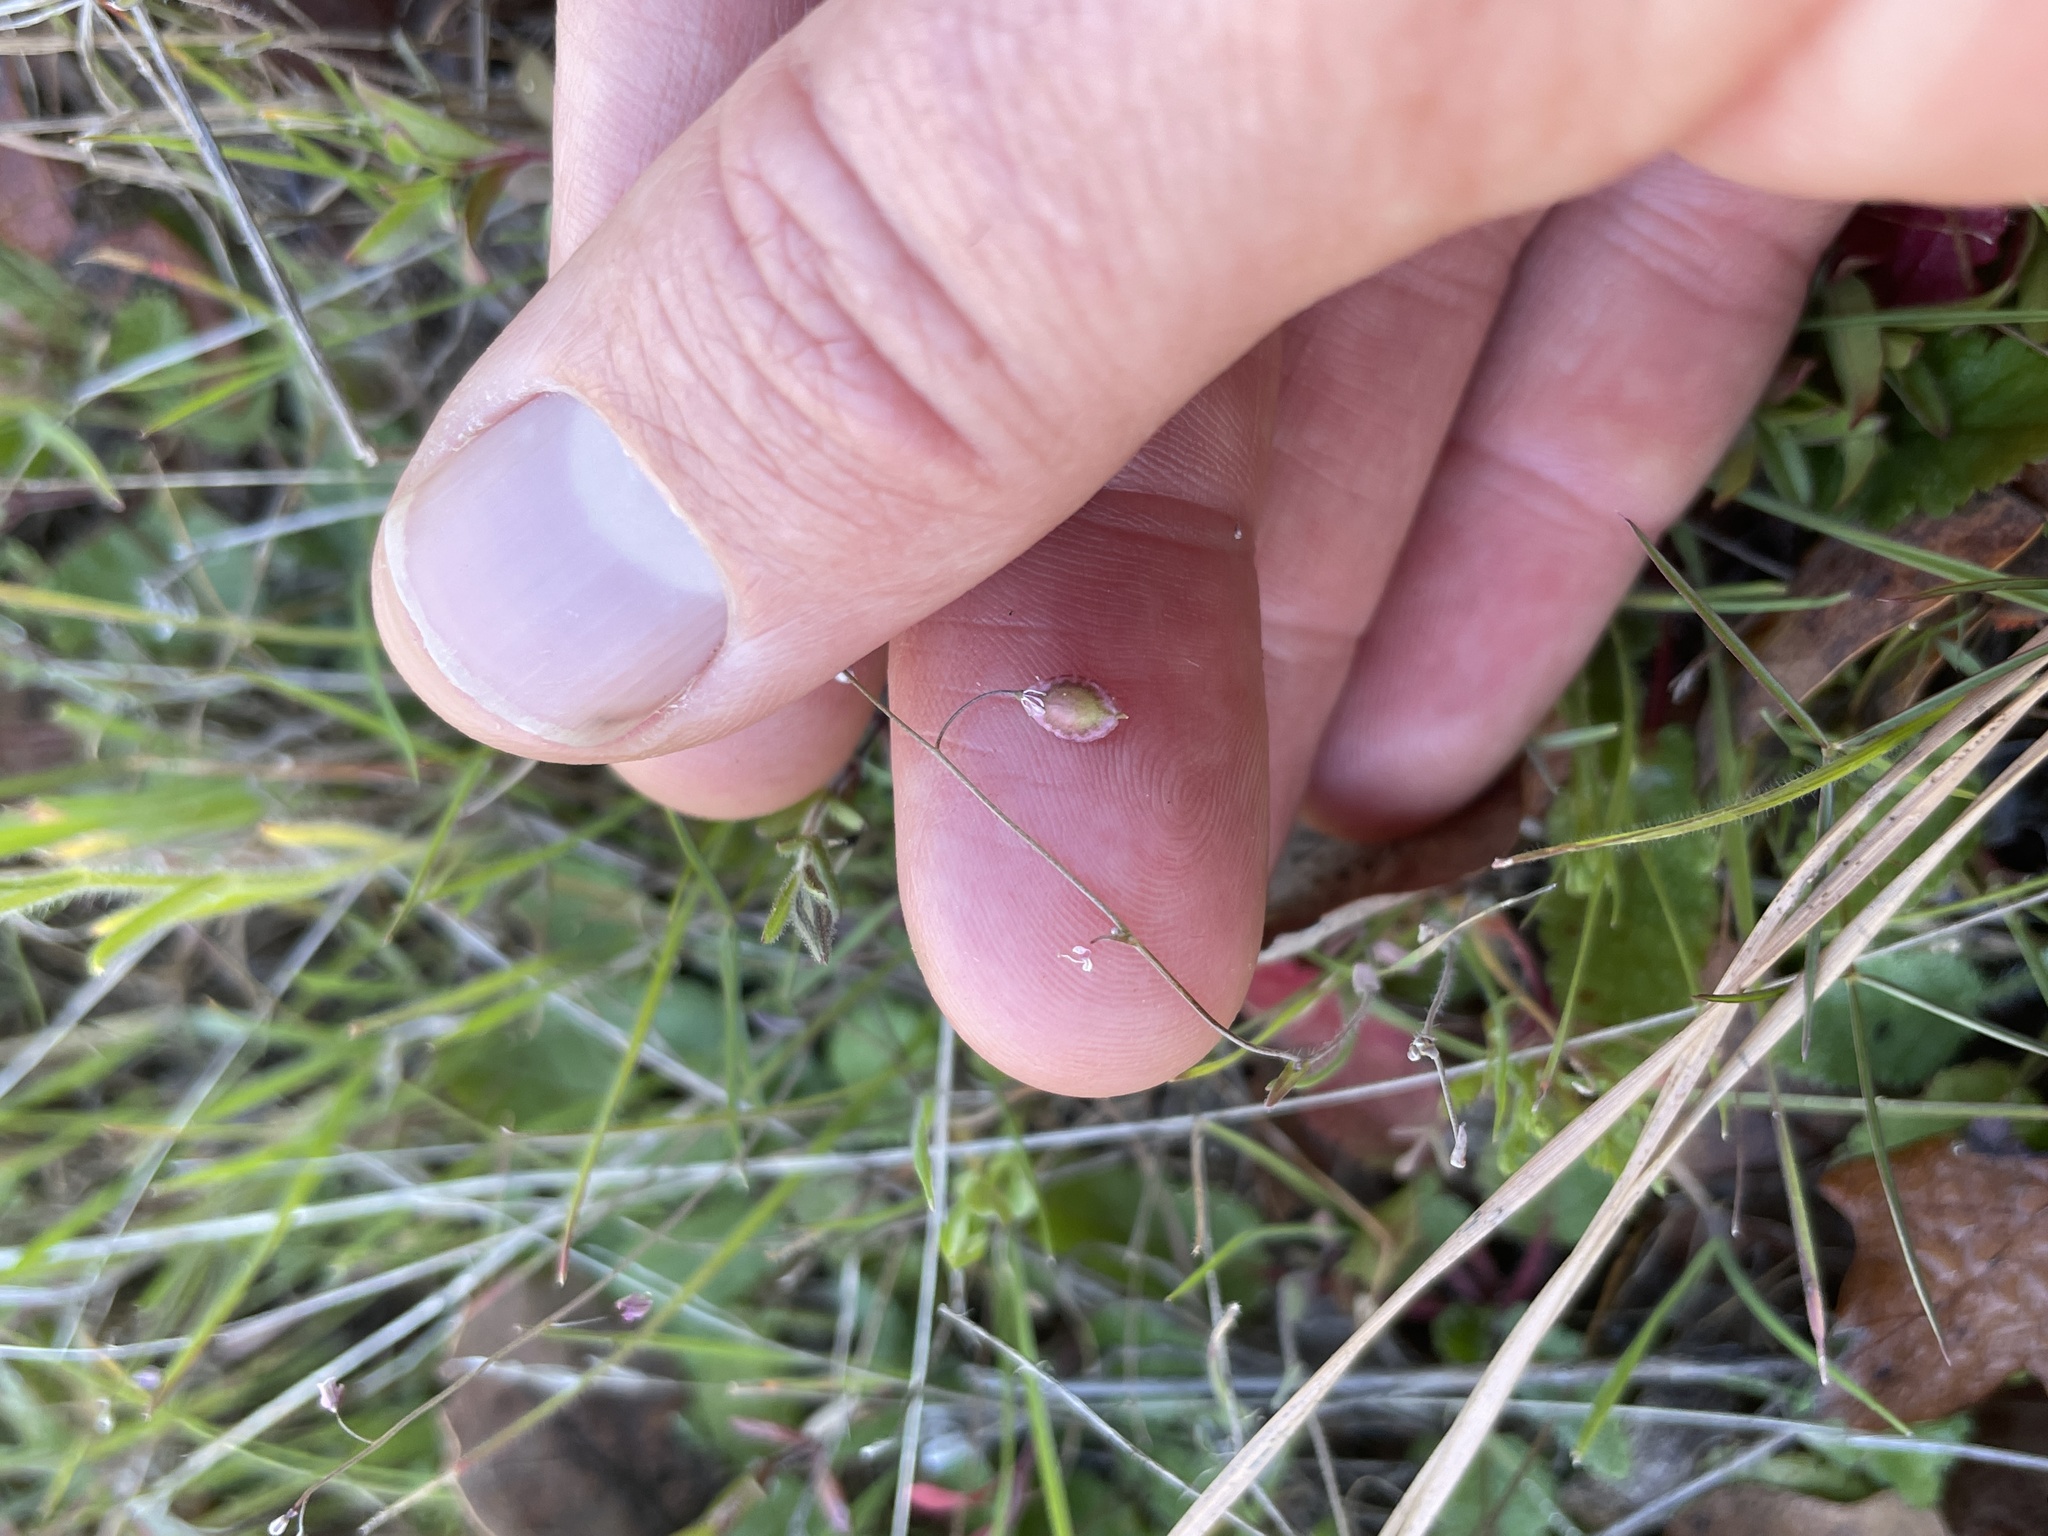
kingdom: Plantae
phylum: Tracheophyta
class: Magnoliopsida
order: Brassicales
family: Brassicaceae
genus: Thysanocarpus
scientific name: Thysanocarpus curvipes
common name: Sand fringepod
